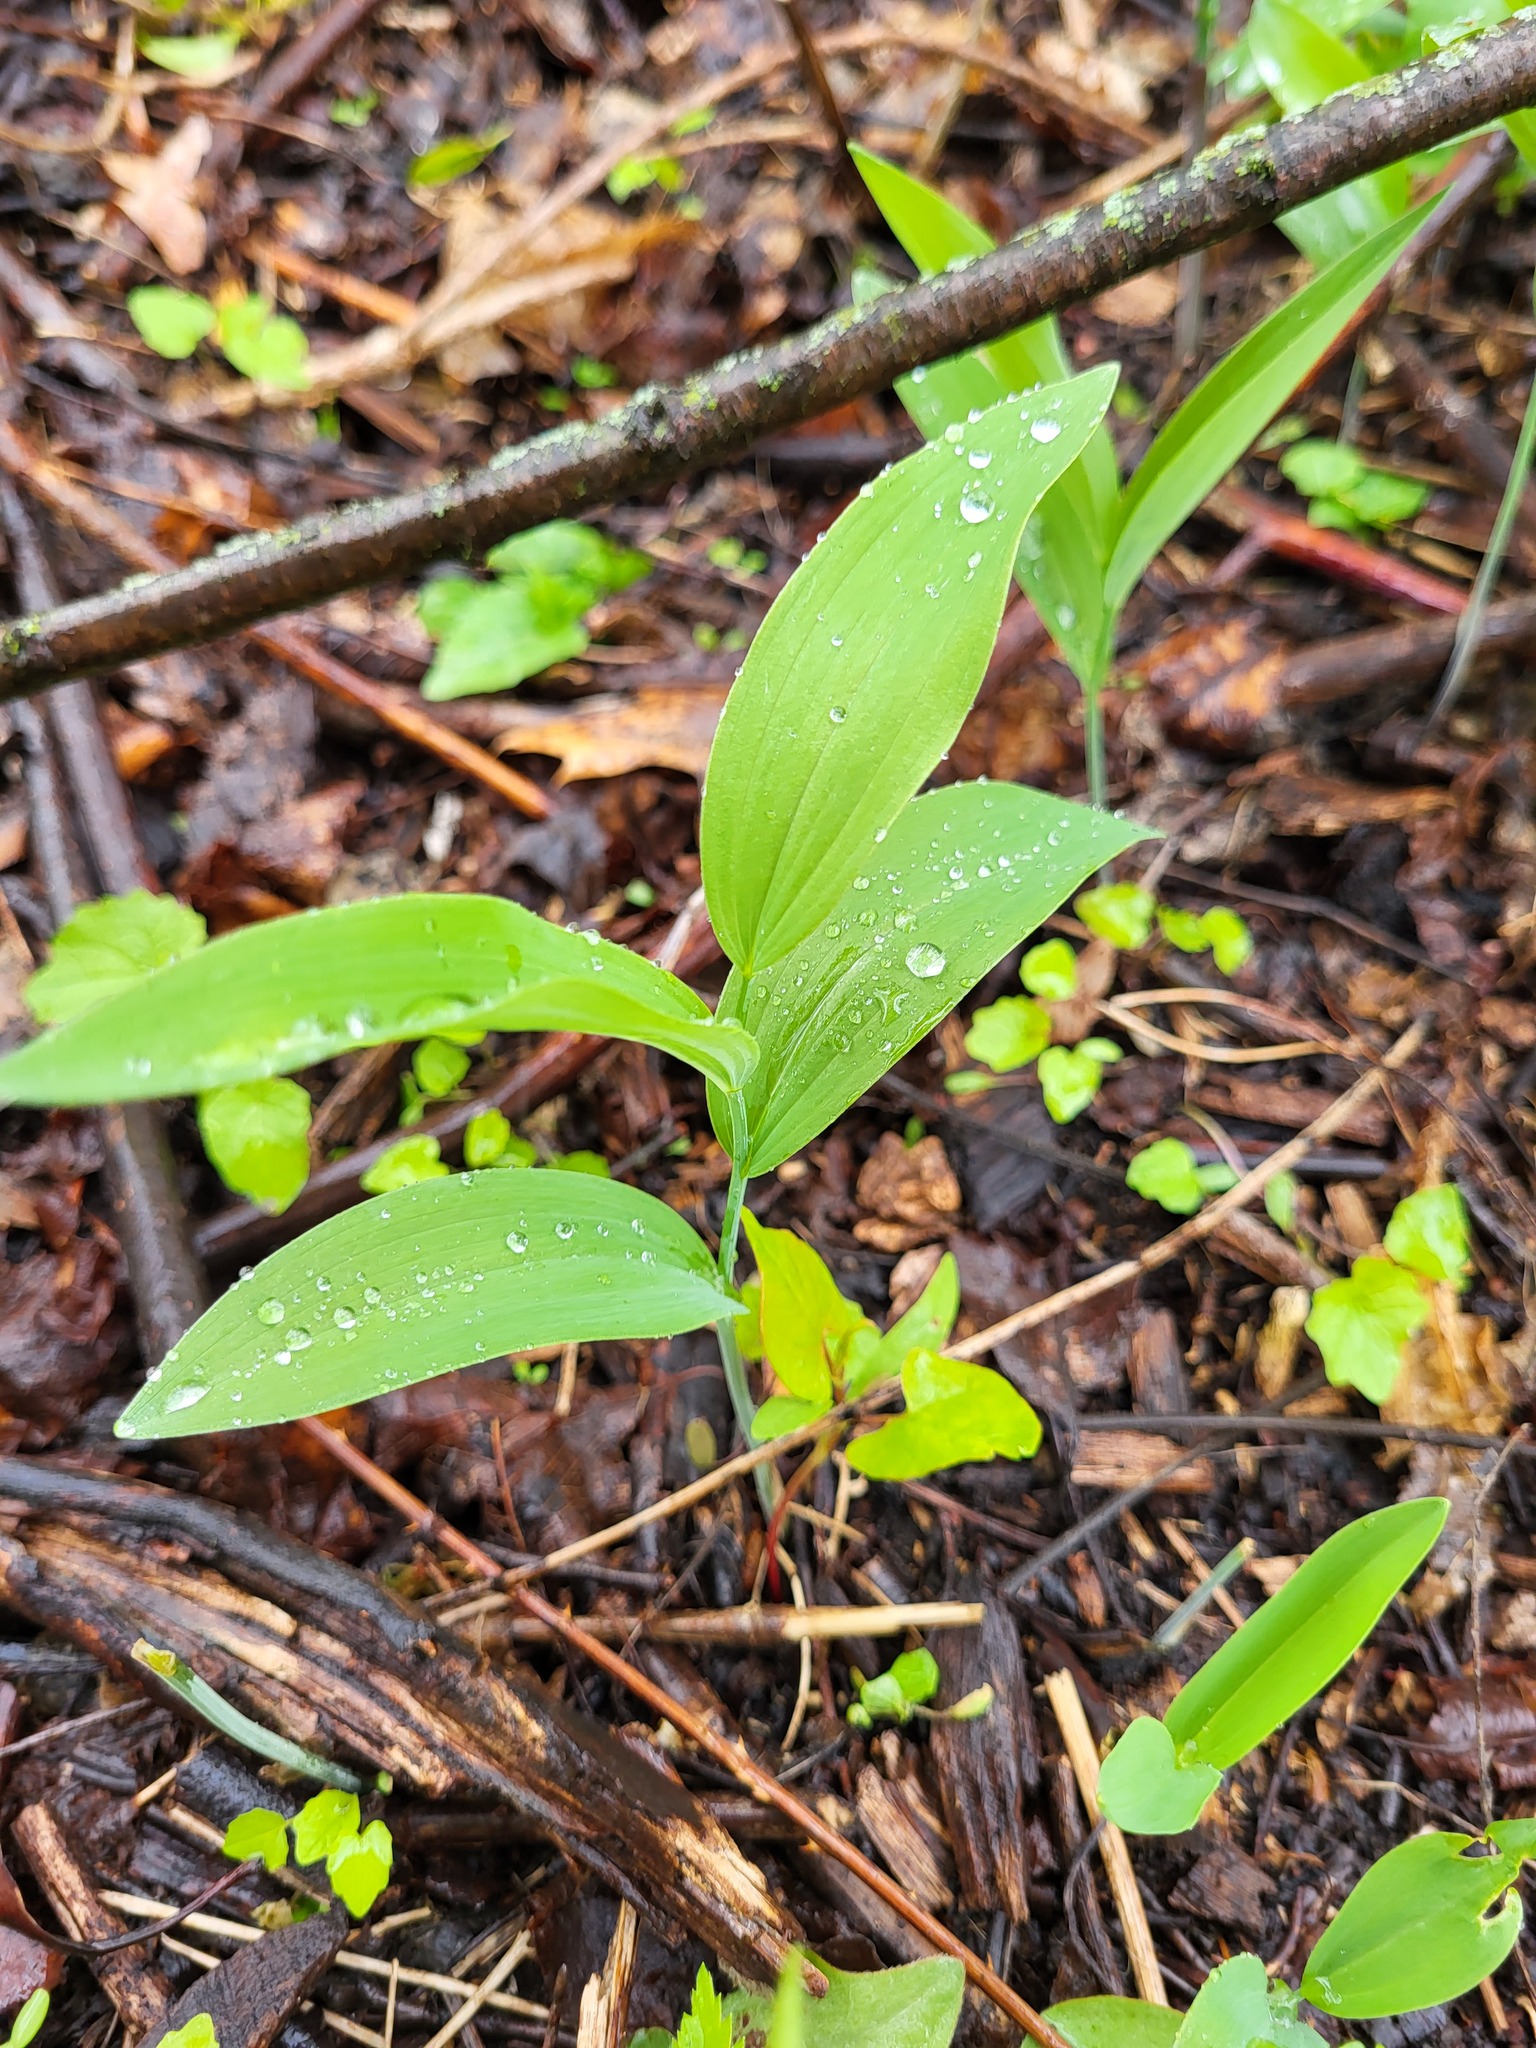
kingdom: Plantae
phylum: Tracheophyta
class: Liliopsida
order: Asparagales
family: Asparagaceae
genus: Polygonatum
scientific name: Polygonatum biflorum
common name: American solomon's-seal
